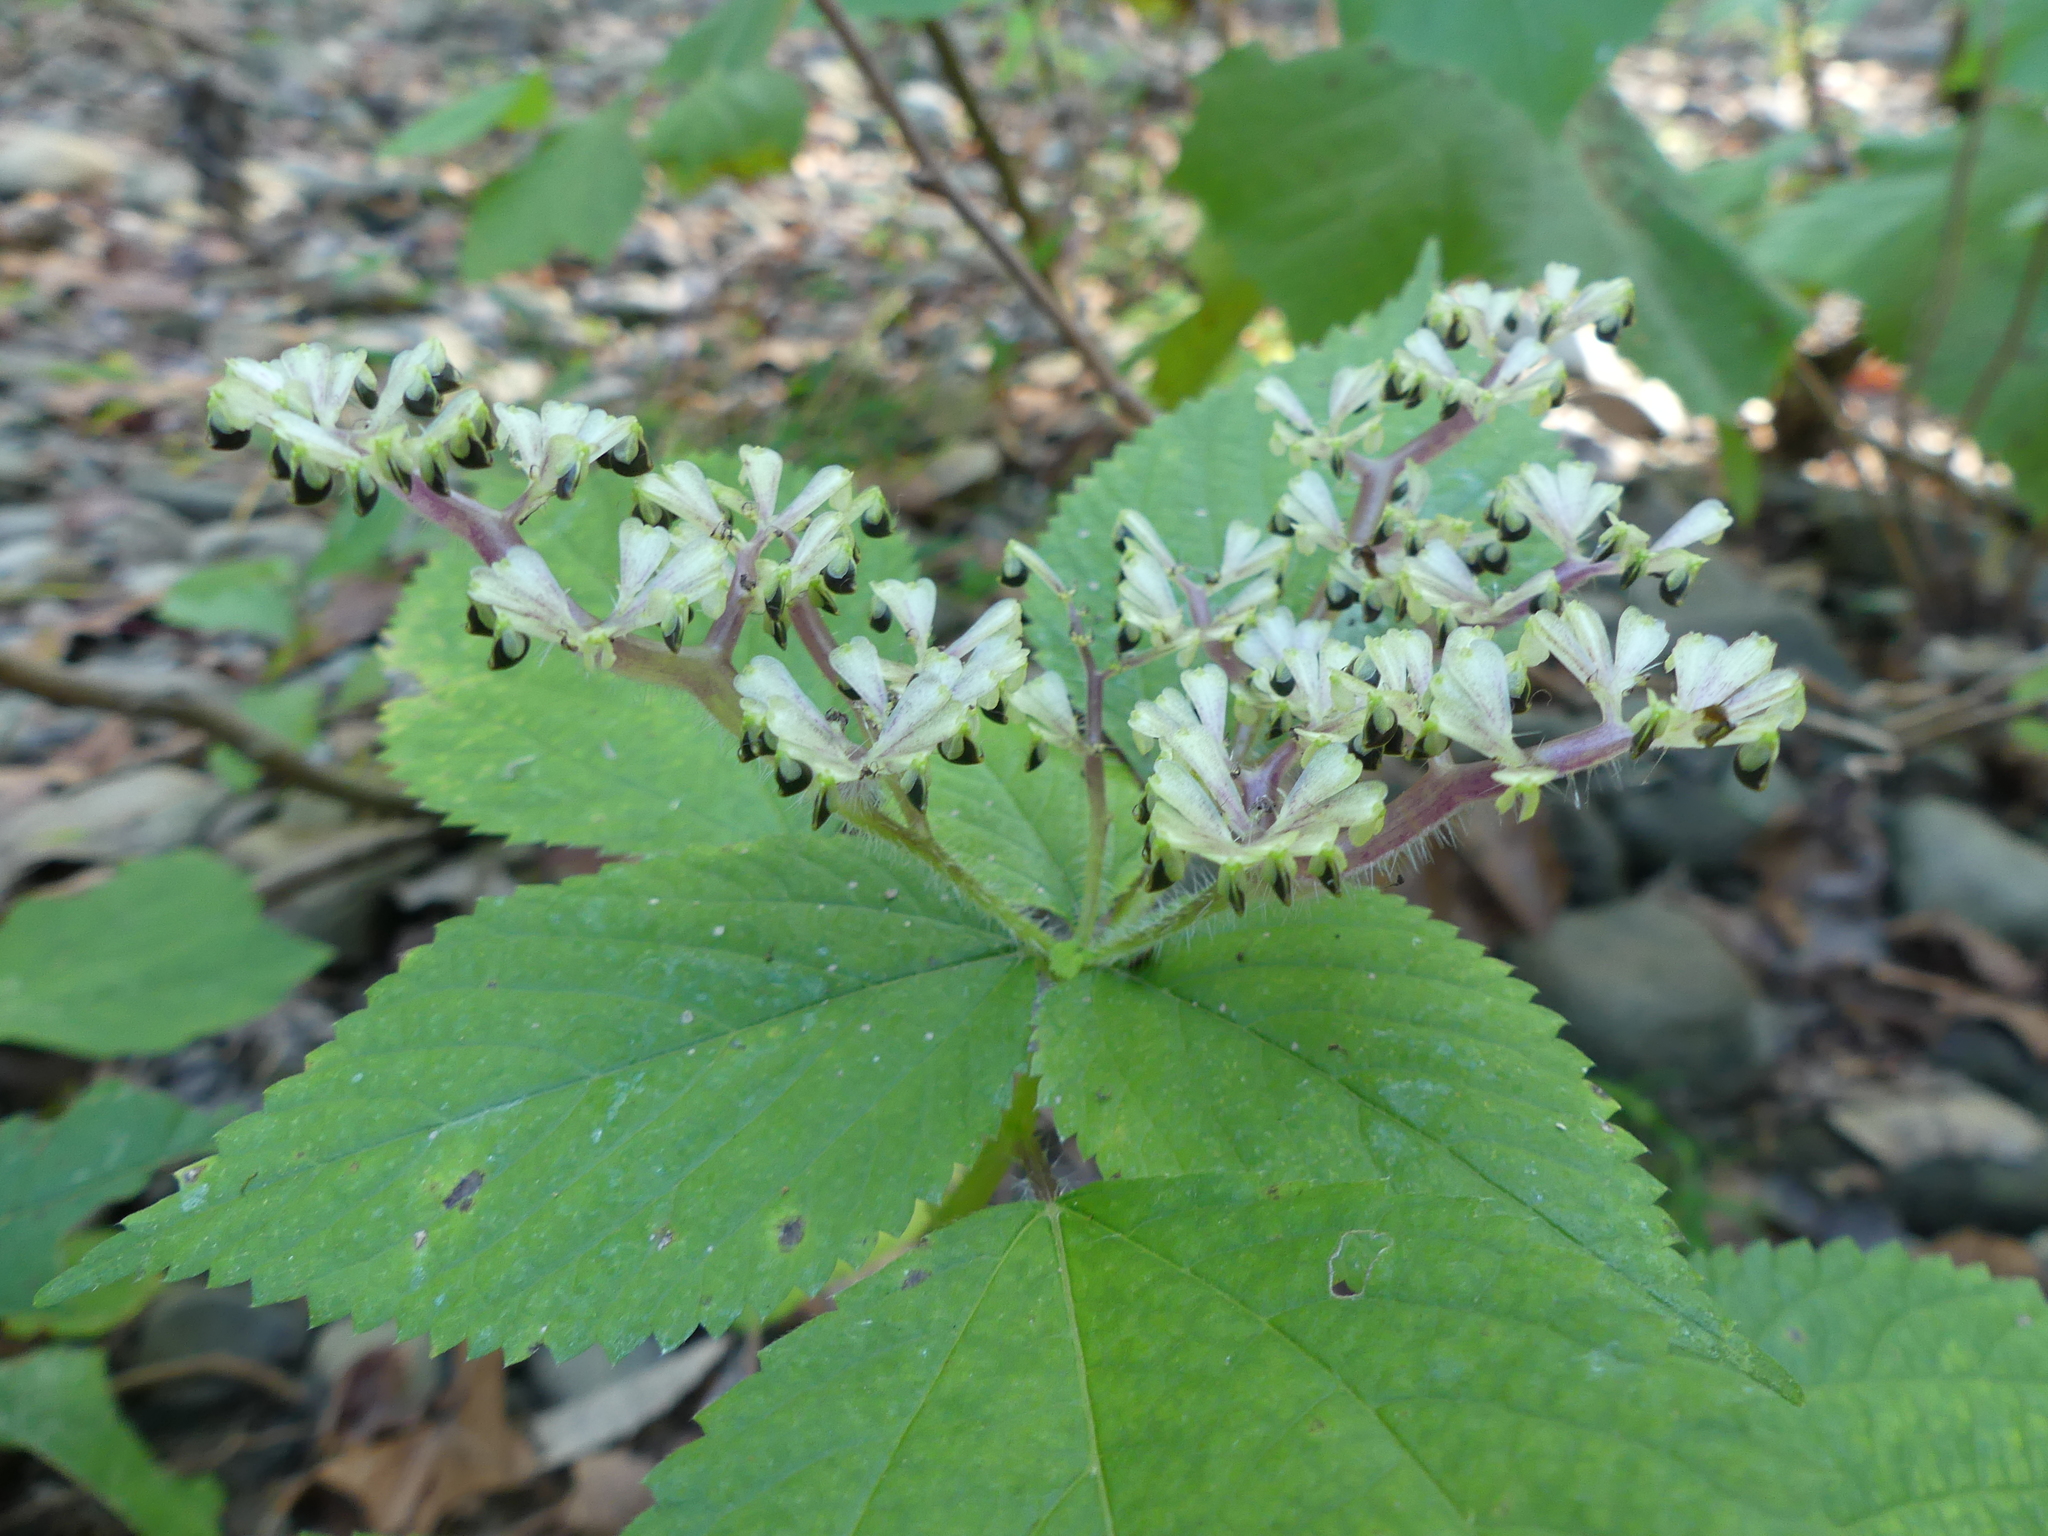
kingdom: Plantae
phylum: Tracheophyta
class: Magnoliopsida
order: Rosales
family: Urticaceae
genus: Laportea
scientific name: Laportea canadensis
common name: Canada nettle
